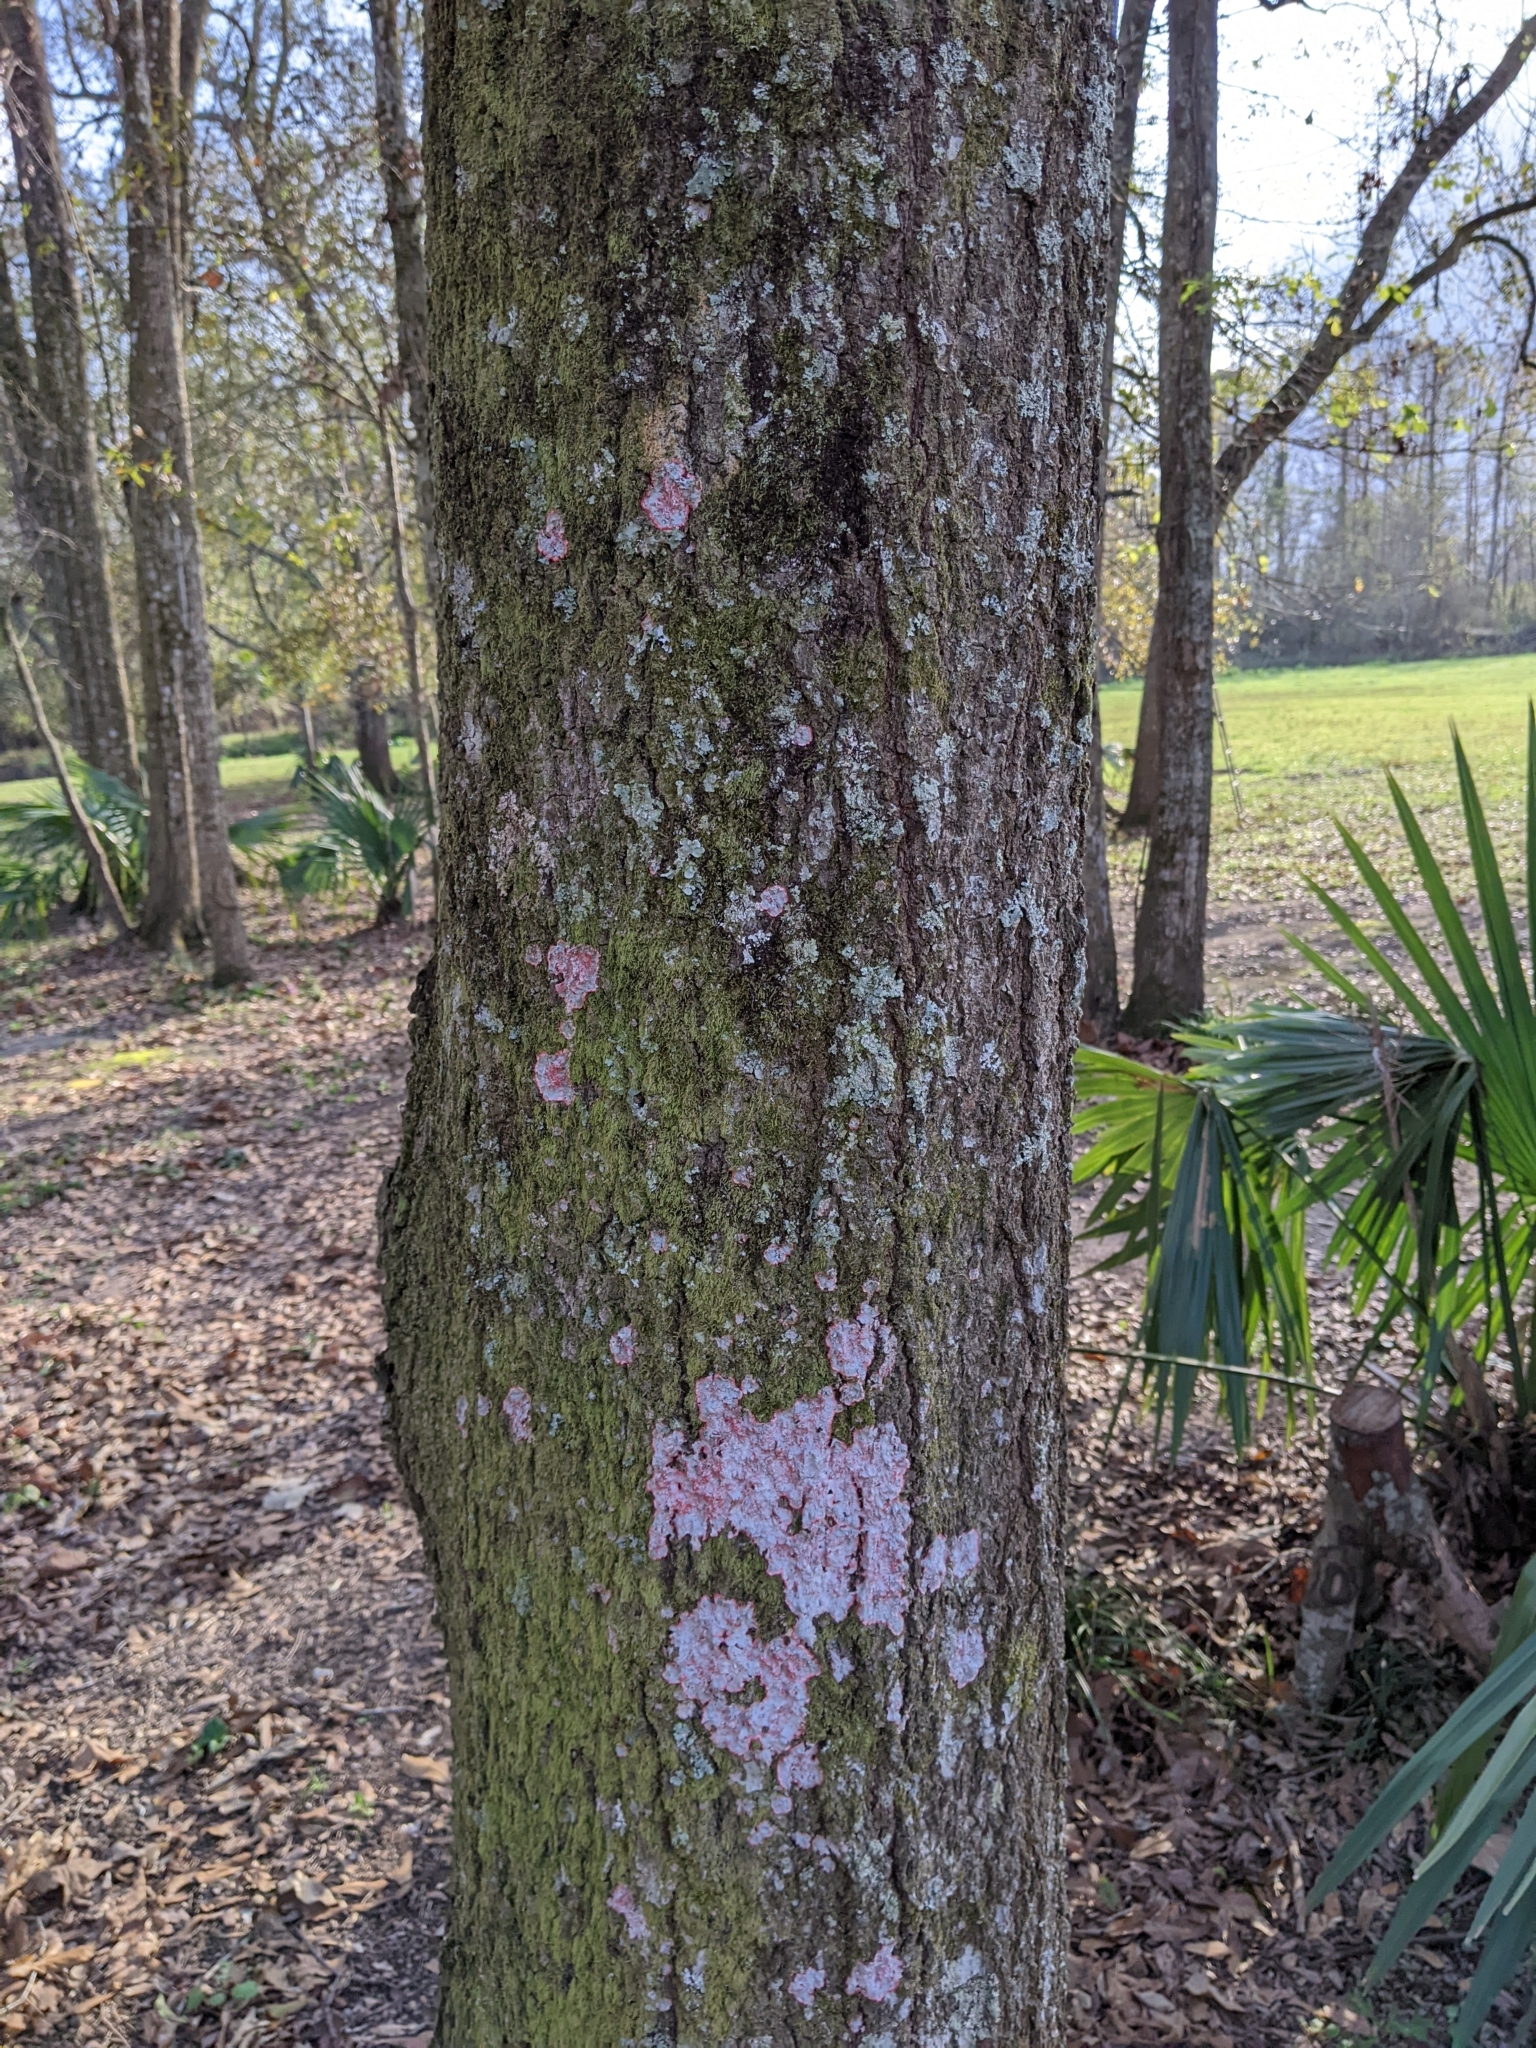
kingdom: Fungi
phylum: Ascomycota
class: Arthoniomycetes
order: Arthoniales
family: Arthoniaceae
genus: Herpothallon
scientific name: Herpothallon rubrocinctum
